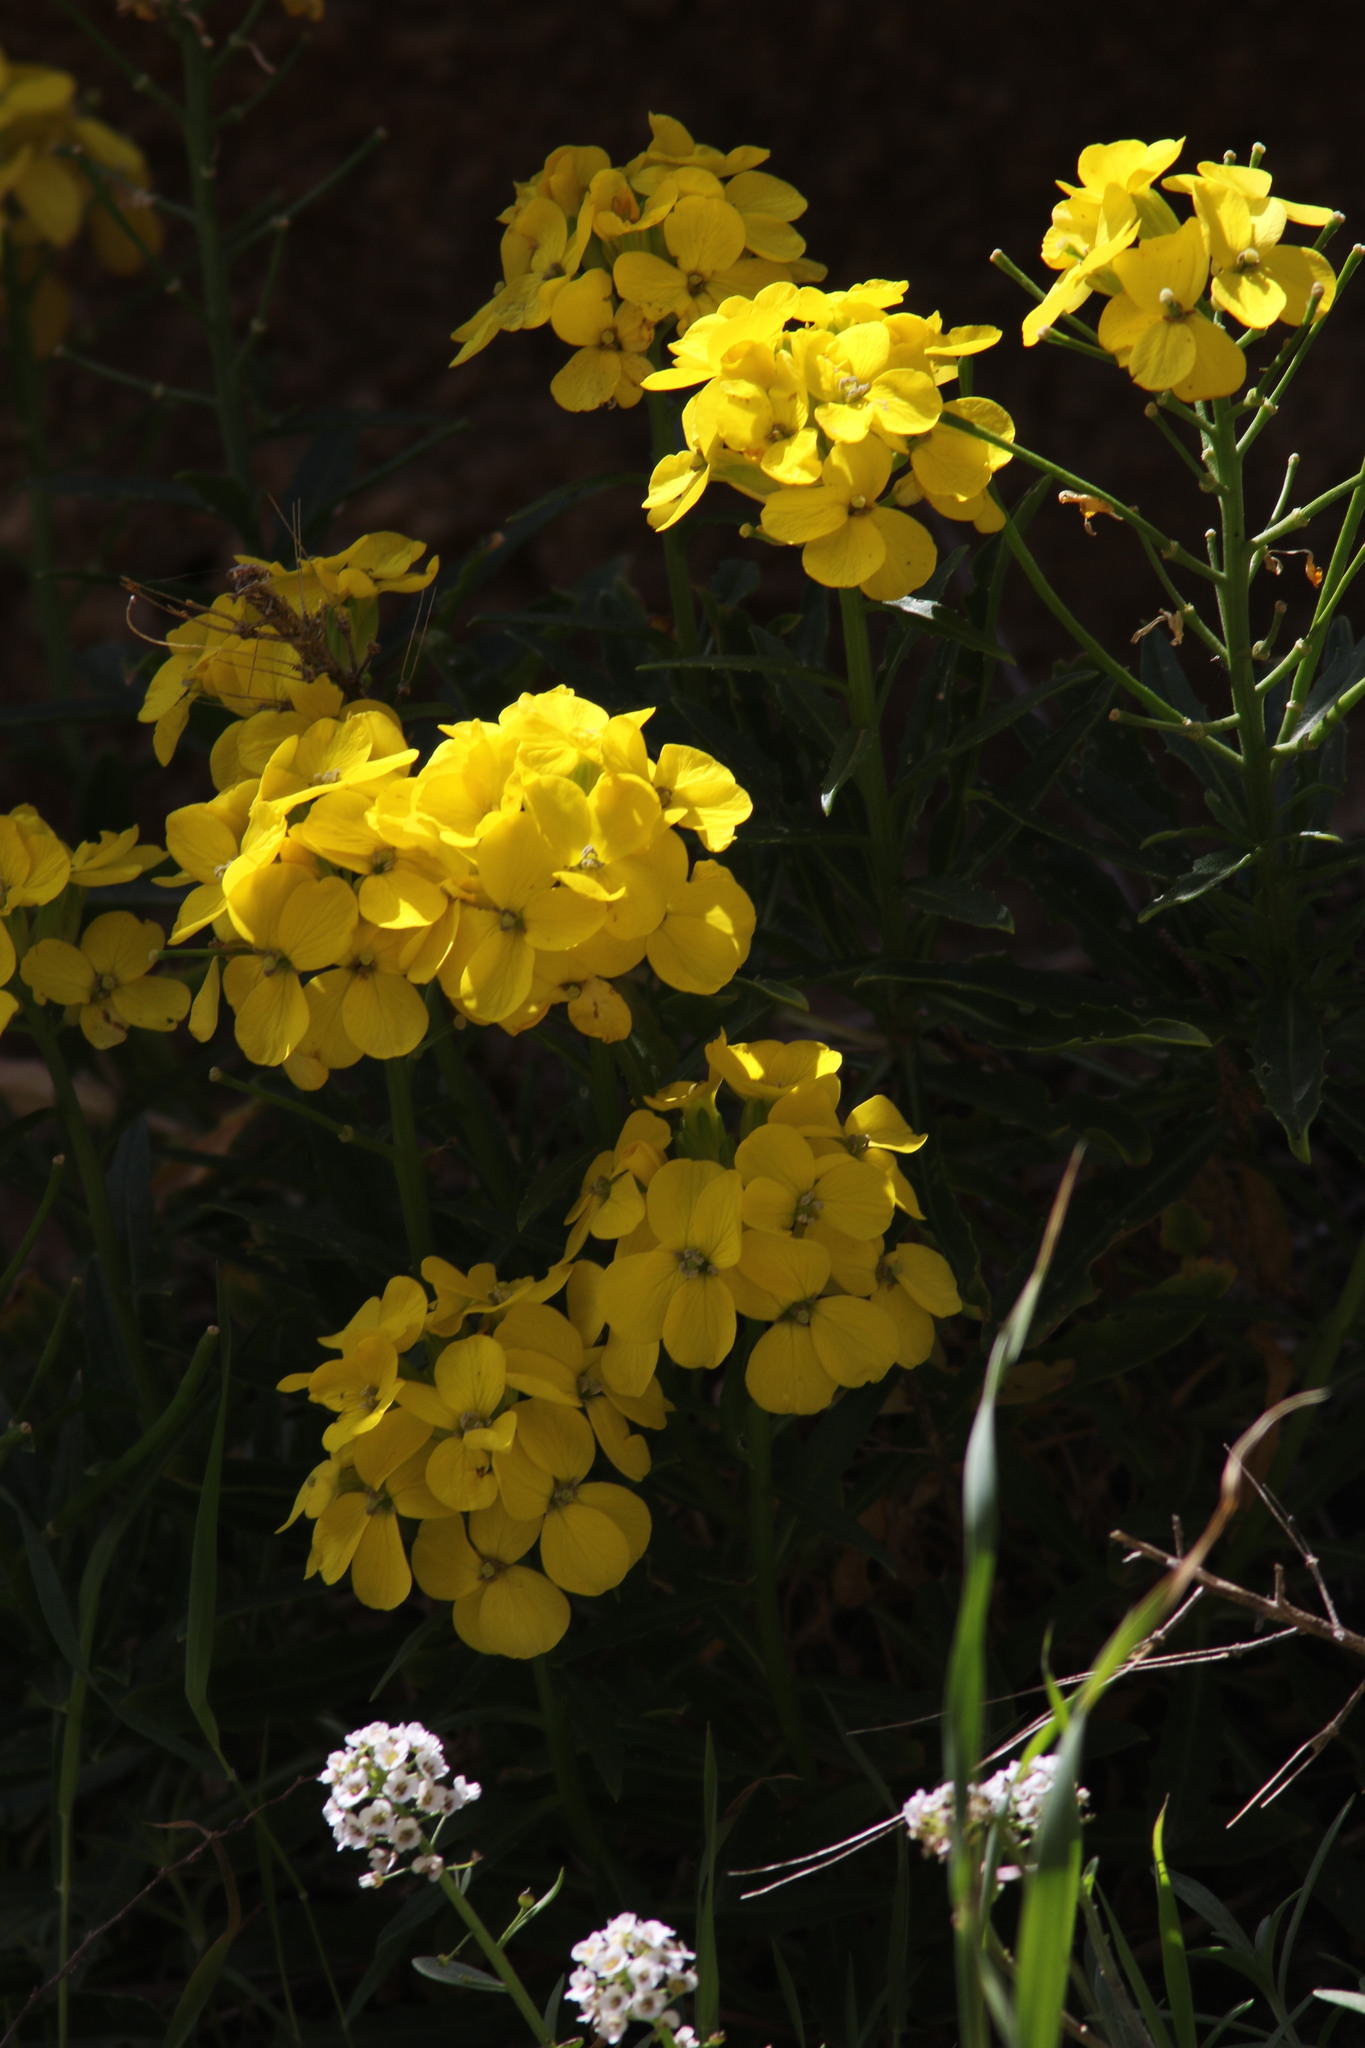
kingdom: Plantae
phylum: Tracheophyta
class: Magnoliopsida
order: Brassicales
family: Brassicaceae
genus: Erysimum
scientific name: Erysimum franciscanum
